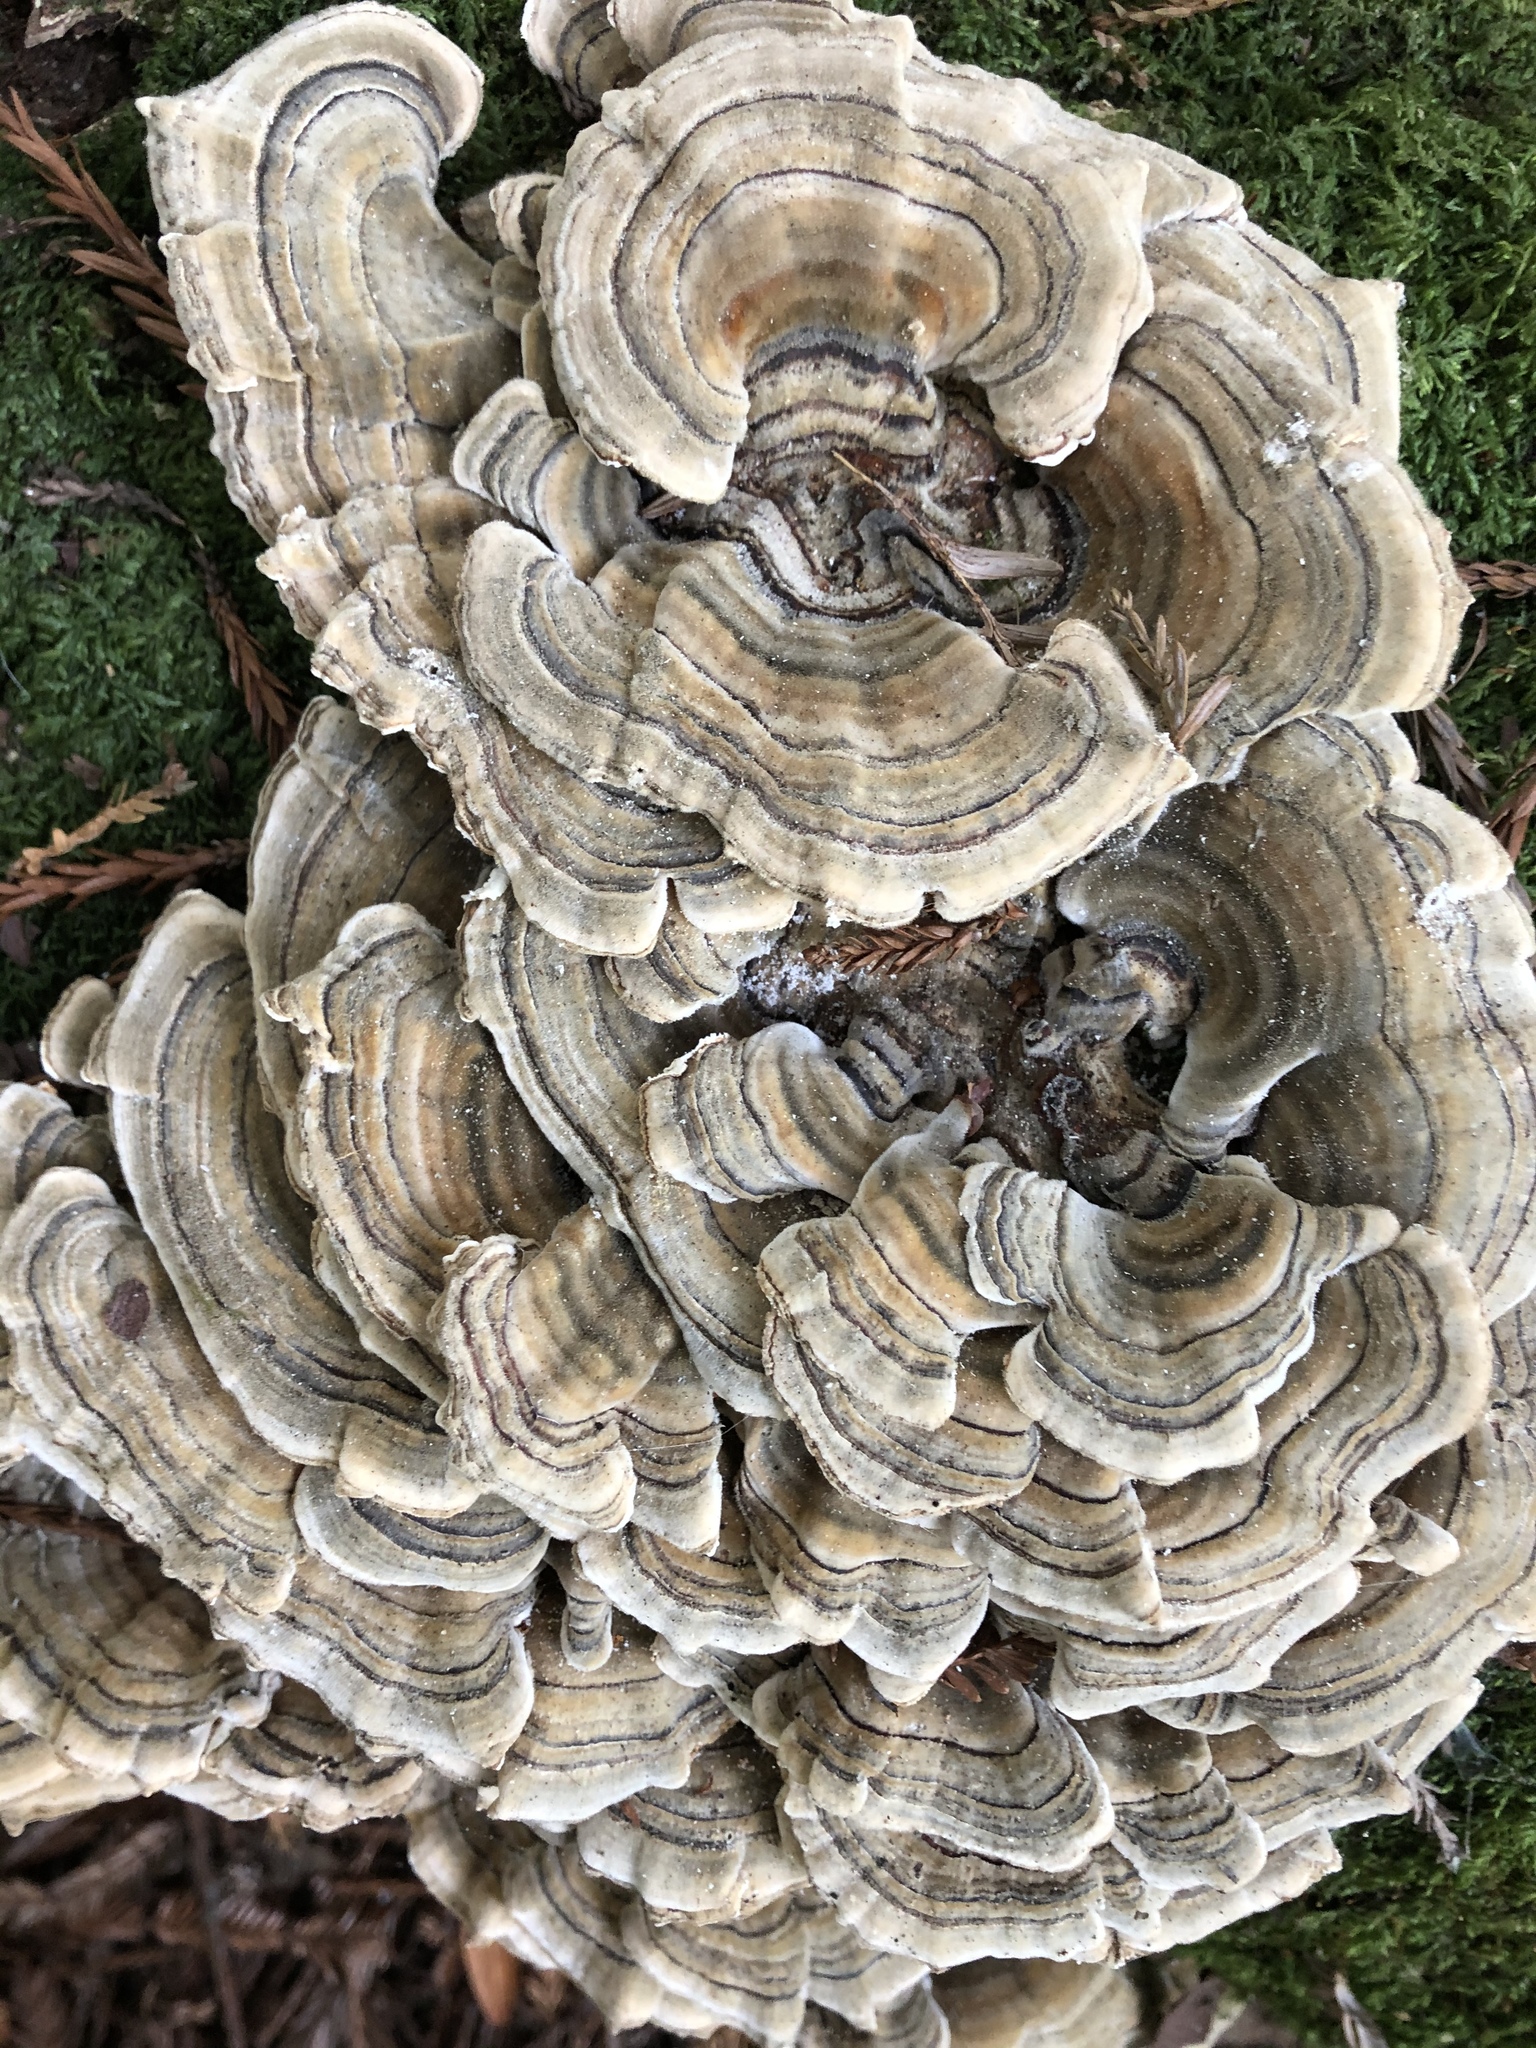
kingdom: Fungi
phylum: Basidiomycota
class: Agaricomycetes
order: Polyporales
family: Polyporaceae
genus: Trametes
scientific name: Trametes versicolor
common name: Turkeytail
